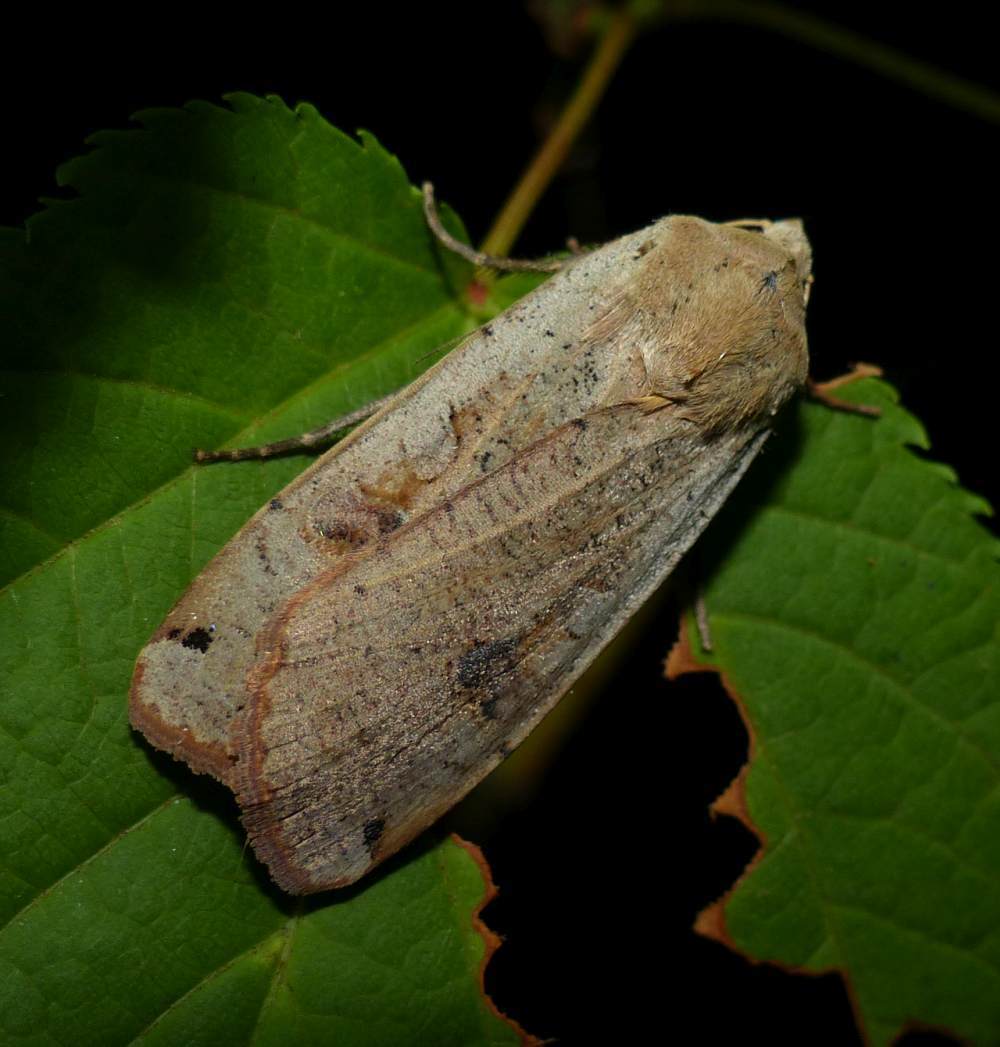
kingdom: Animalia
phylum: Arthropoda
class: Insecta
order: Lepidoptera
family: Noctuidae
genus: Noctua
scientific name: Noctua pronuba
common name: Large yellow underwing
